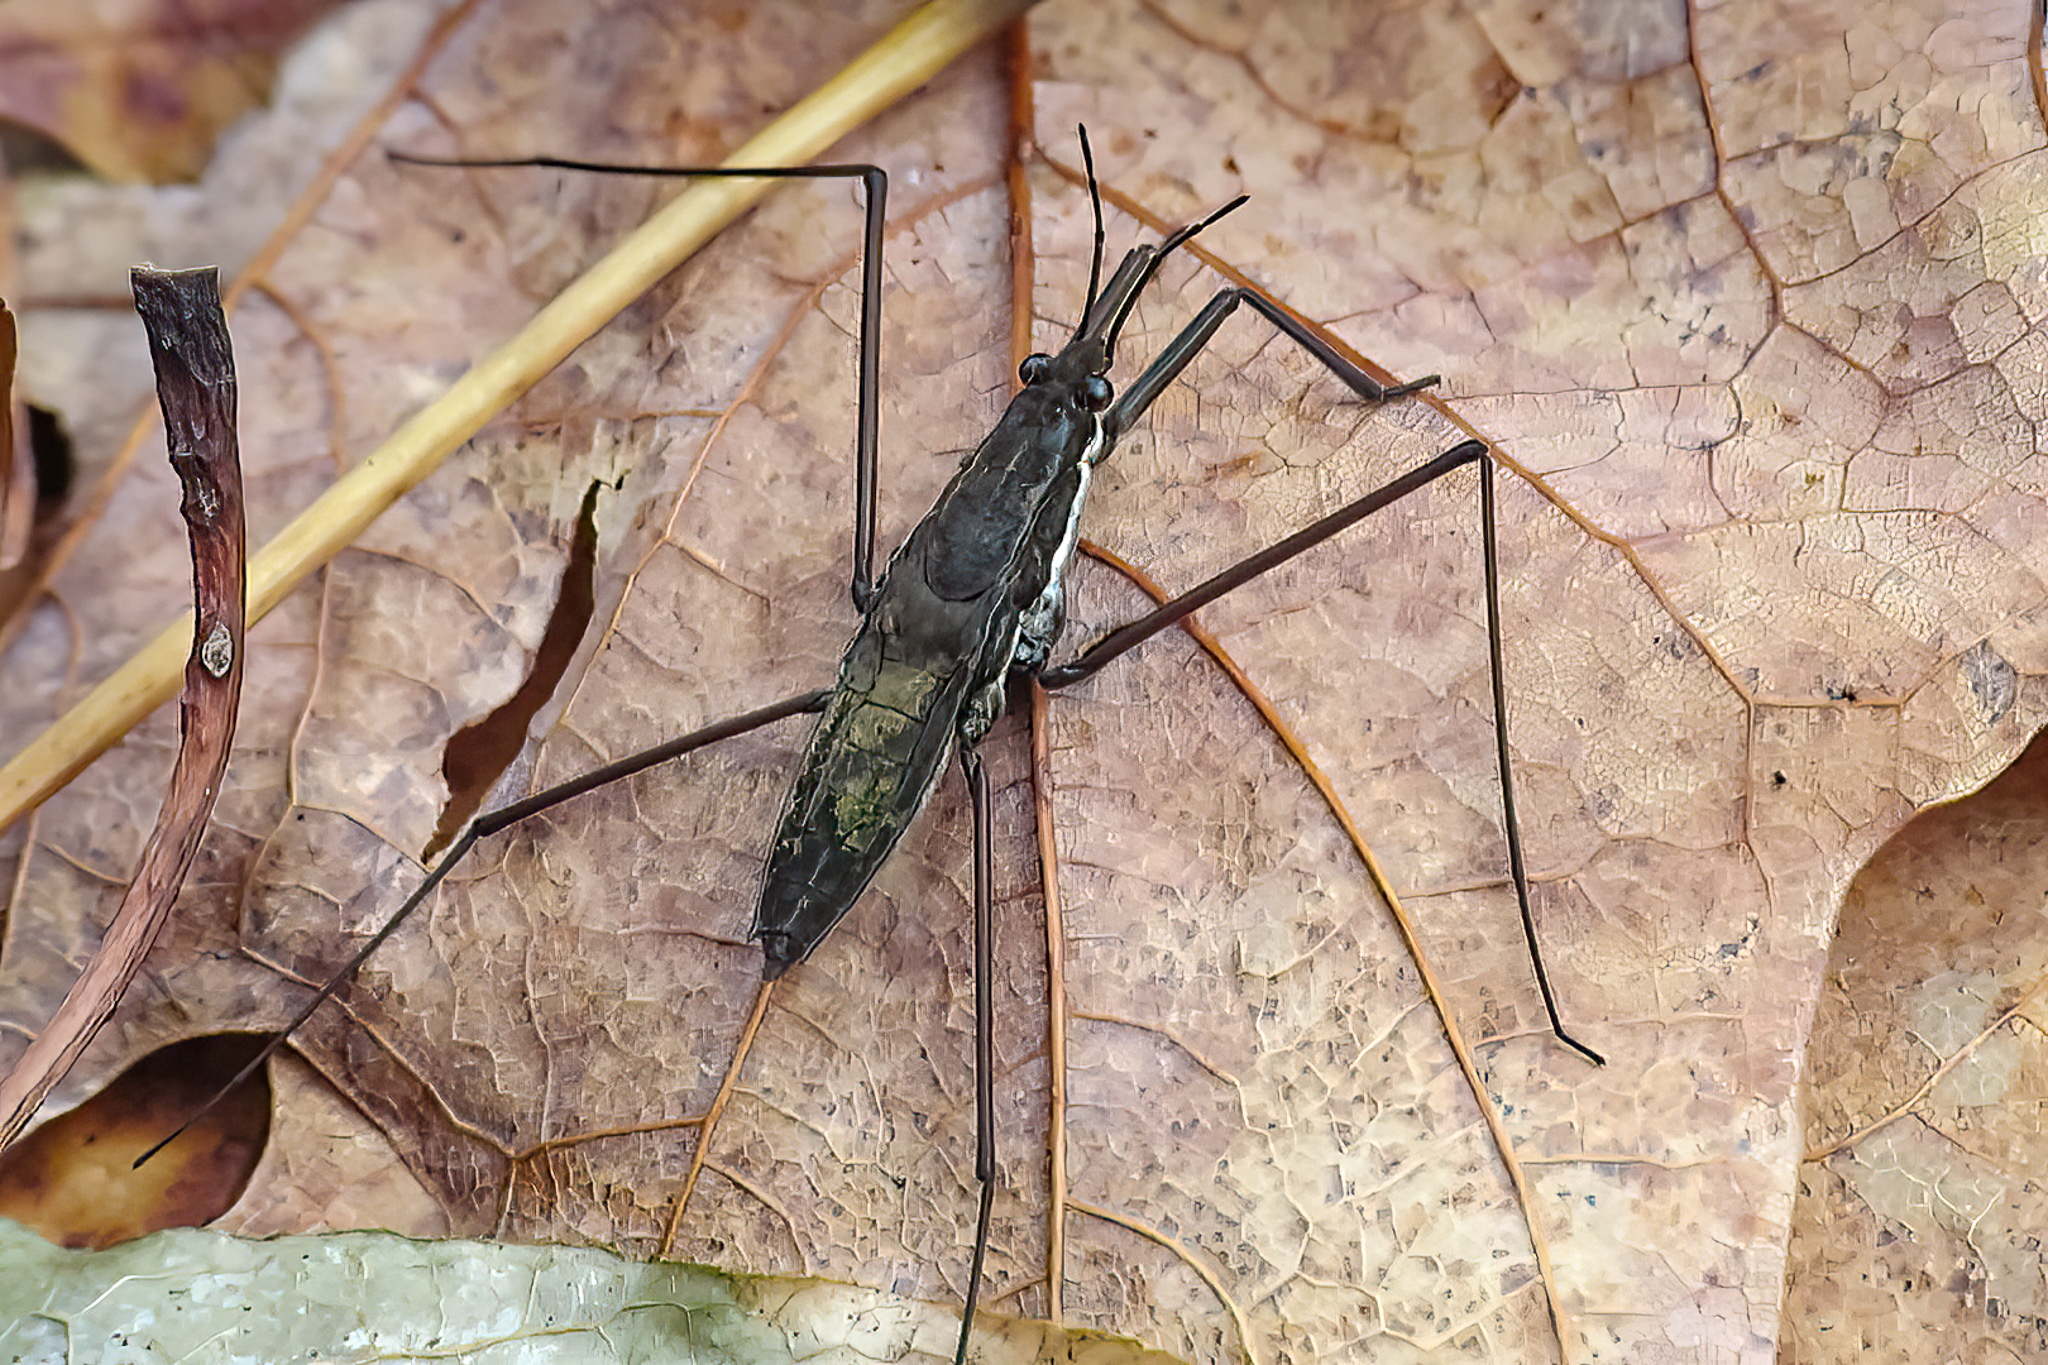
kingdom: Animalia
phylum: Arthropoda
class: Insecta
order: Hemiptera
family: Gerridae
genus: Aquarius
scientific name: Aquarius remigis
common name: Common water strider
